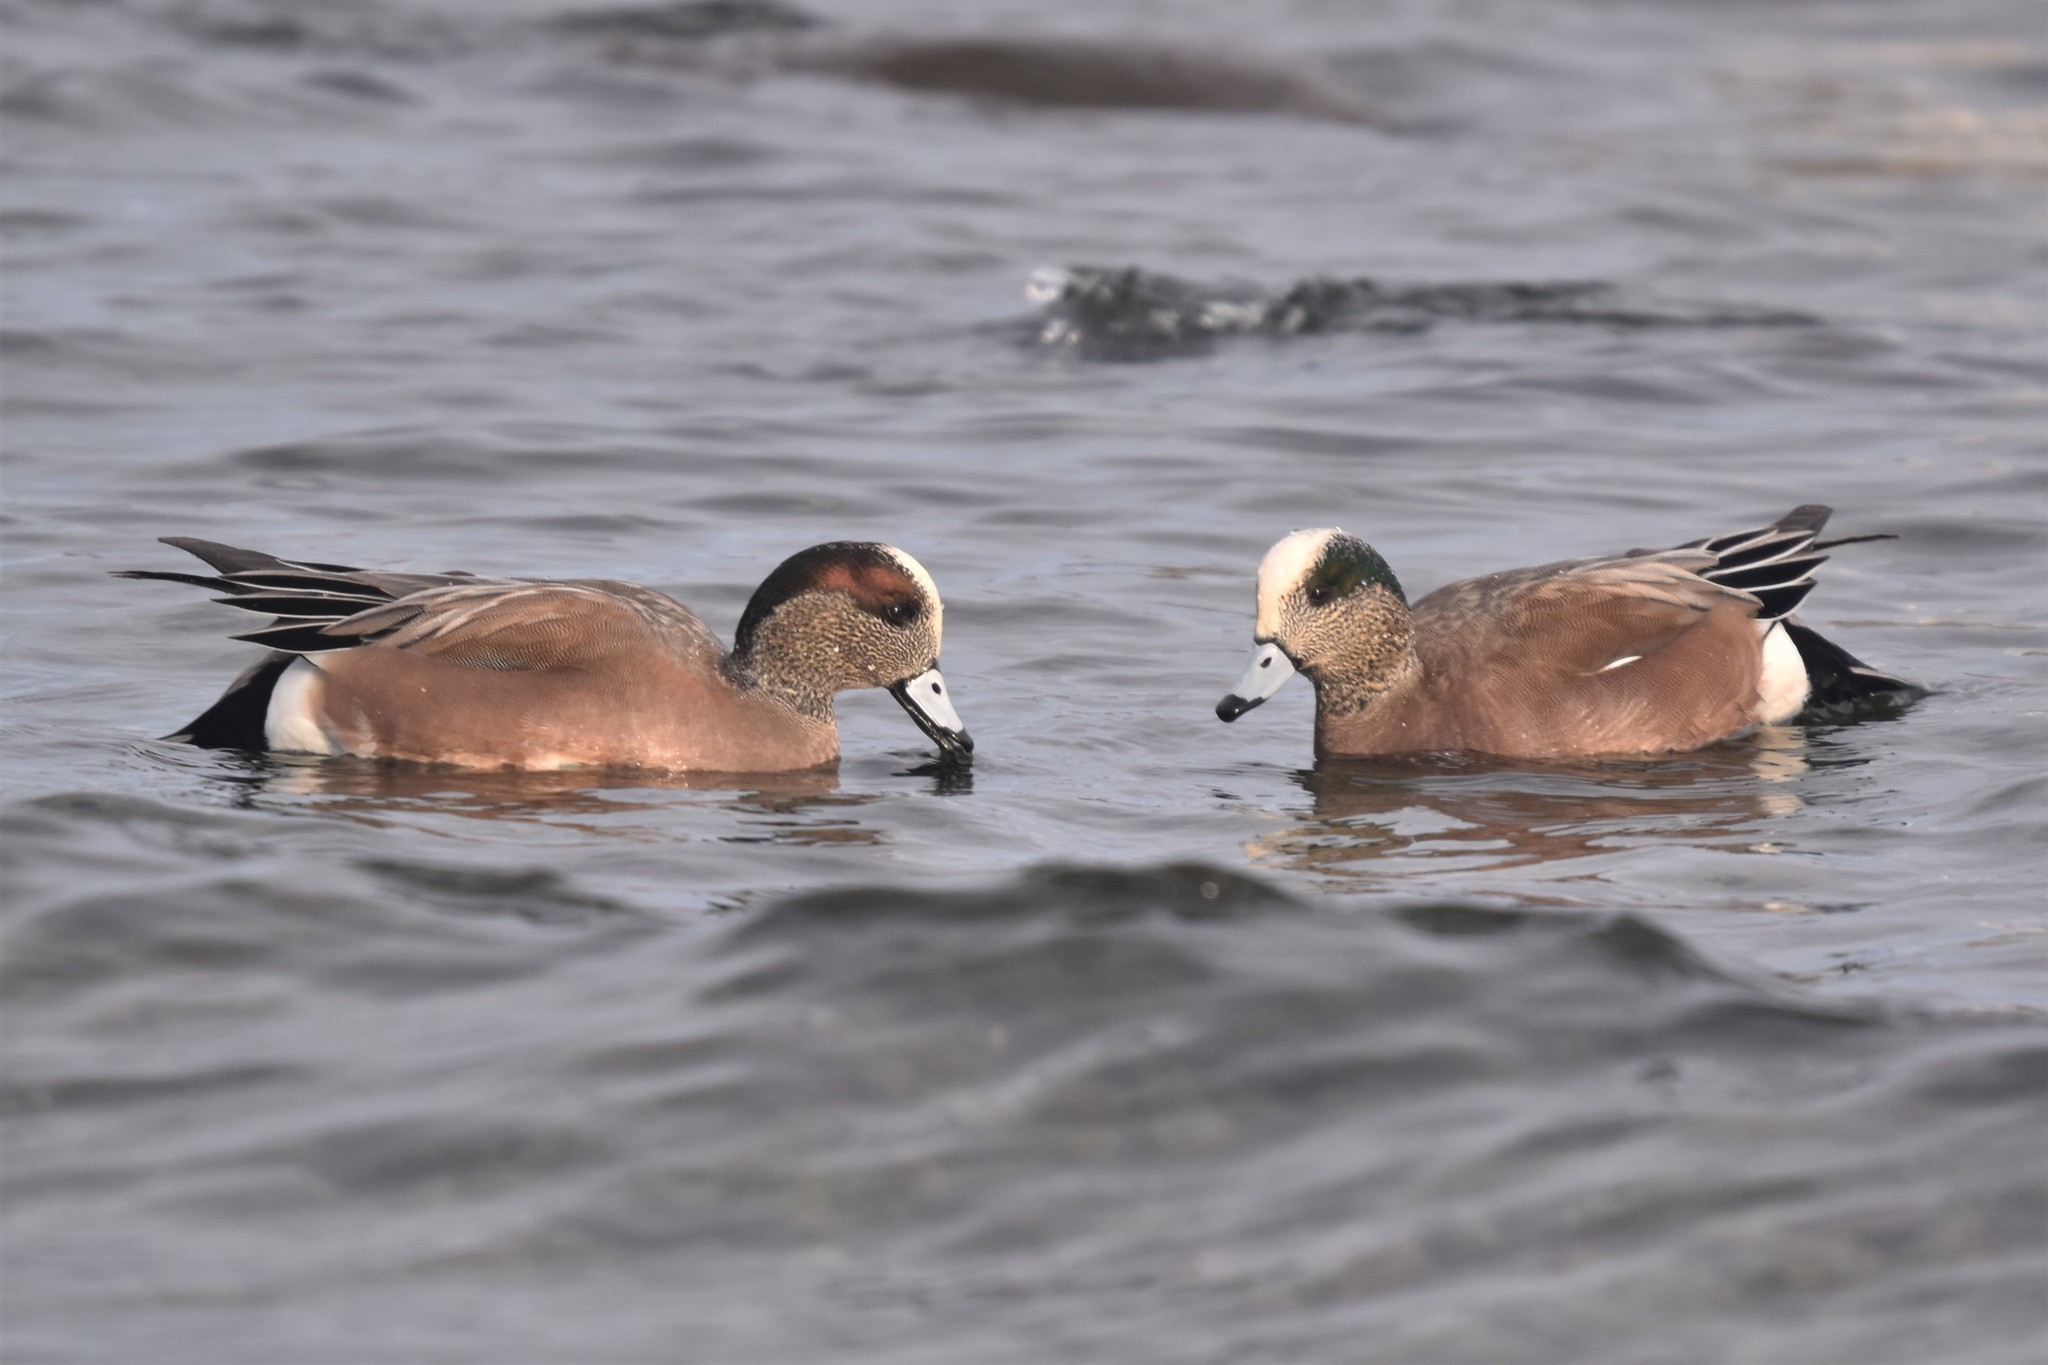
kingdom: Animalia
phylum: Chordata
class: Aves
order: Anseriformes
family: Anatidae
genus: Mareca
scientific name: Mareca americana
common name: American wigeon
